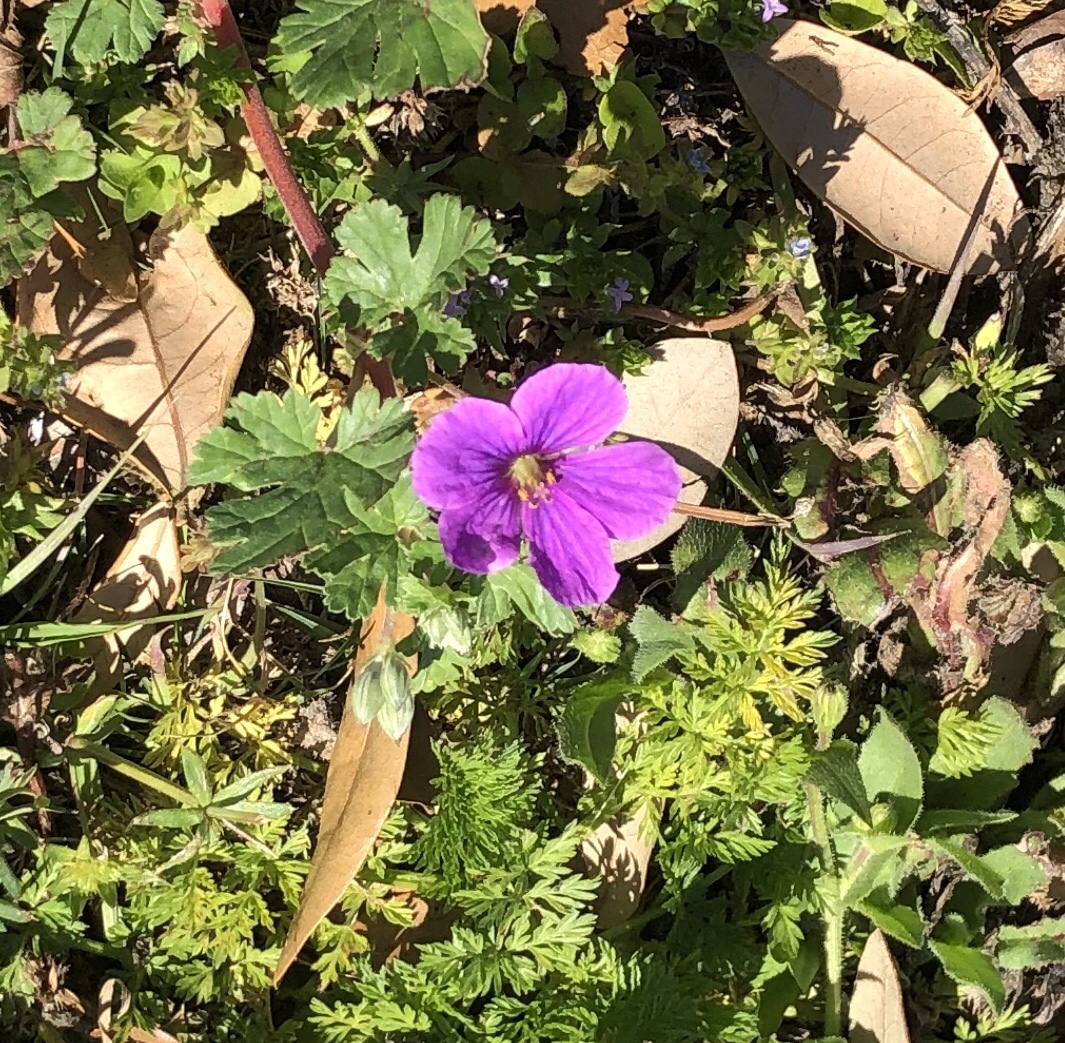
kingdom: Plantae
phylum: Tracheophyta
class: Magnoliopsida
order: Geraniales
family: Geraniaceae
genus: Erodium
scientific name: Erodium texanum
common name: Texas stork's-bill
